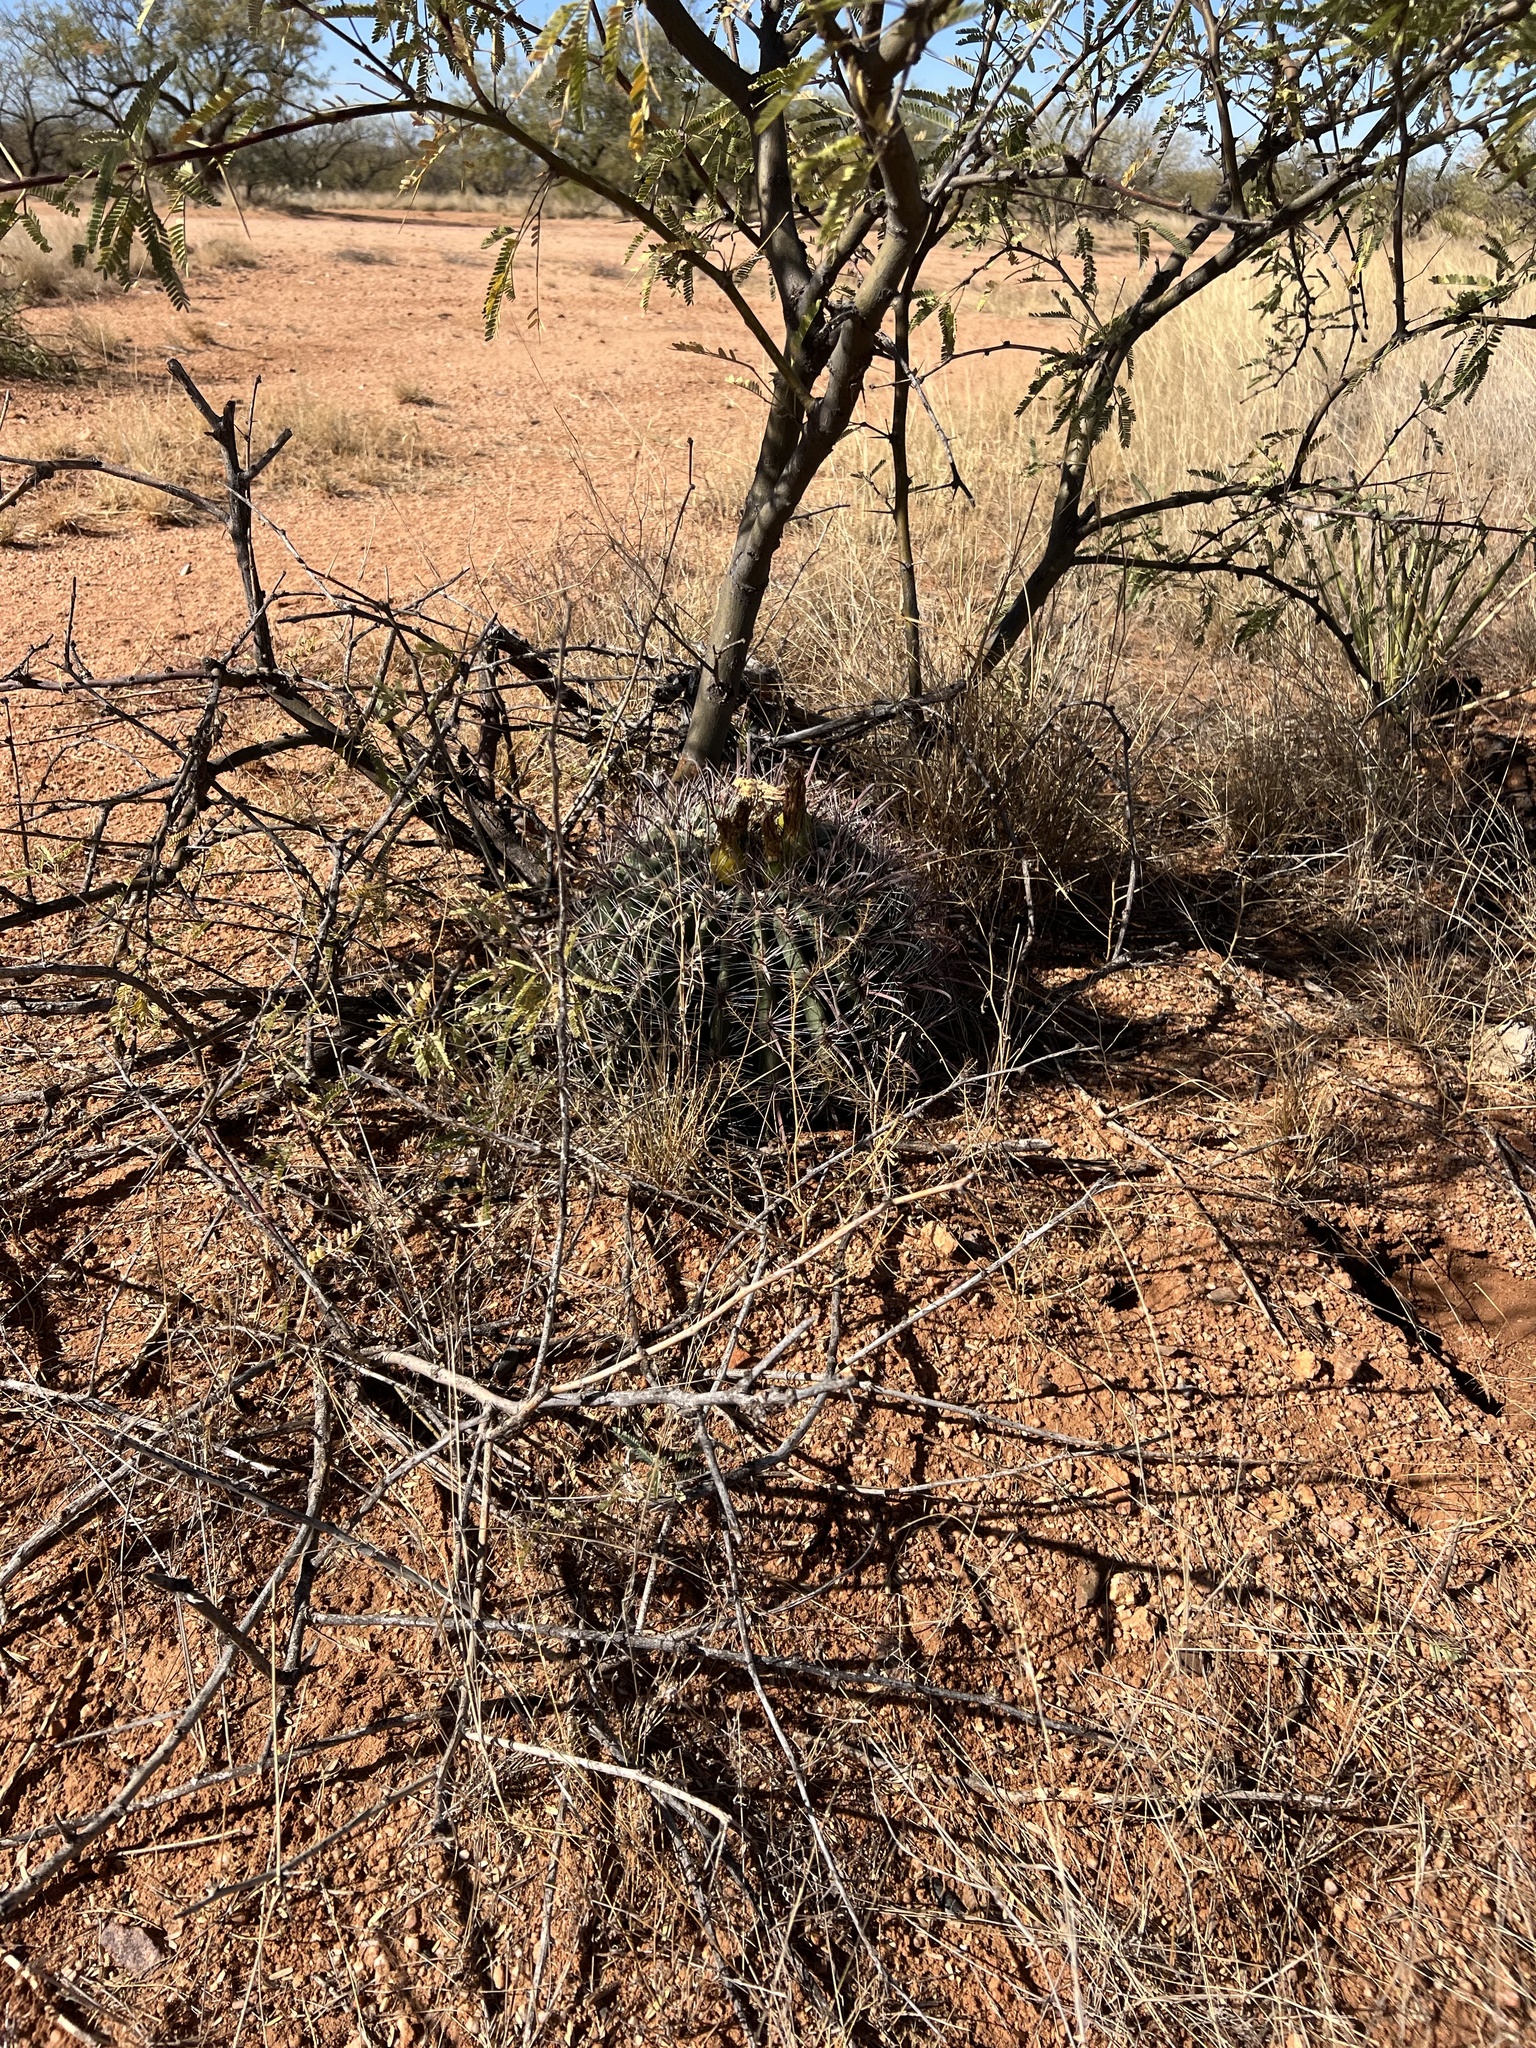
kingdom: Plantae
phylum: Tracheophyta
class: Magnoliopsida
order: Caryophyllales
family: Cactaceae
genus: Ferocactus
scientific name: Ferocactus wislizeni
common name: Candy barrel cactus
